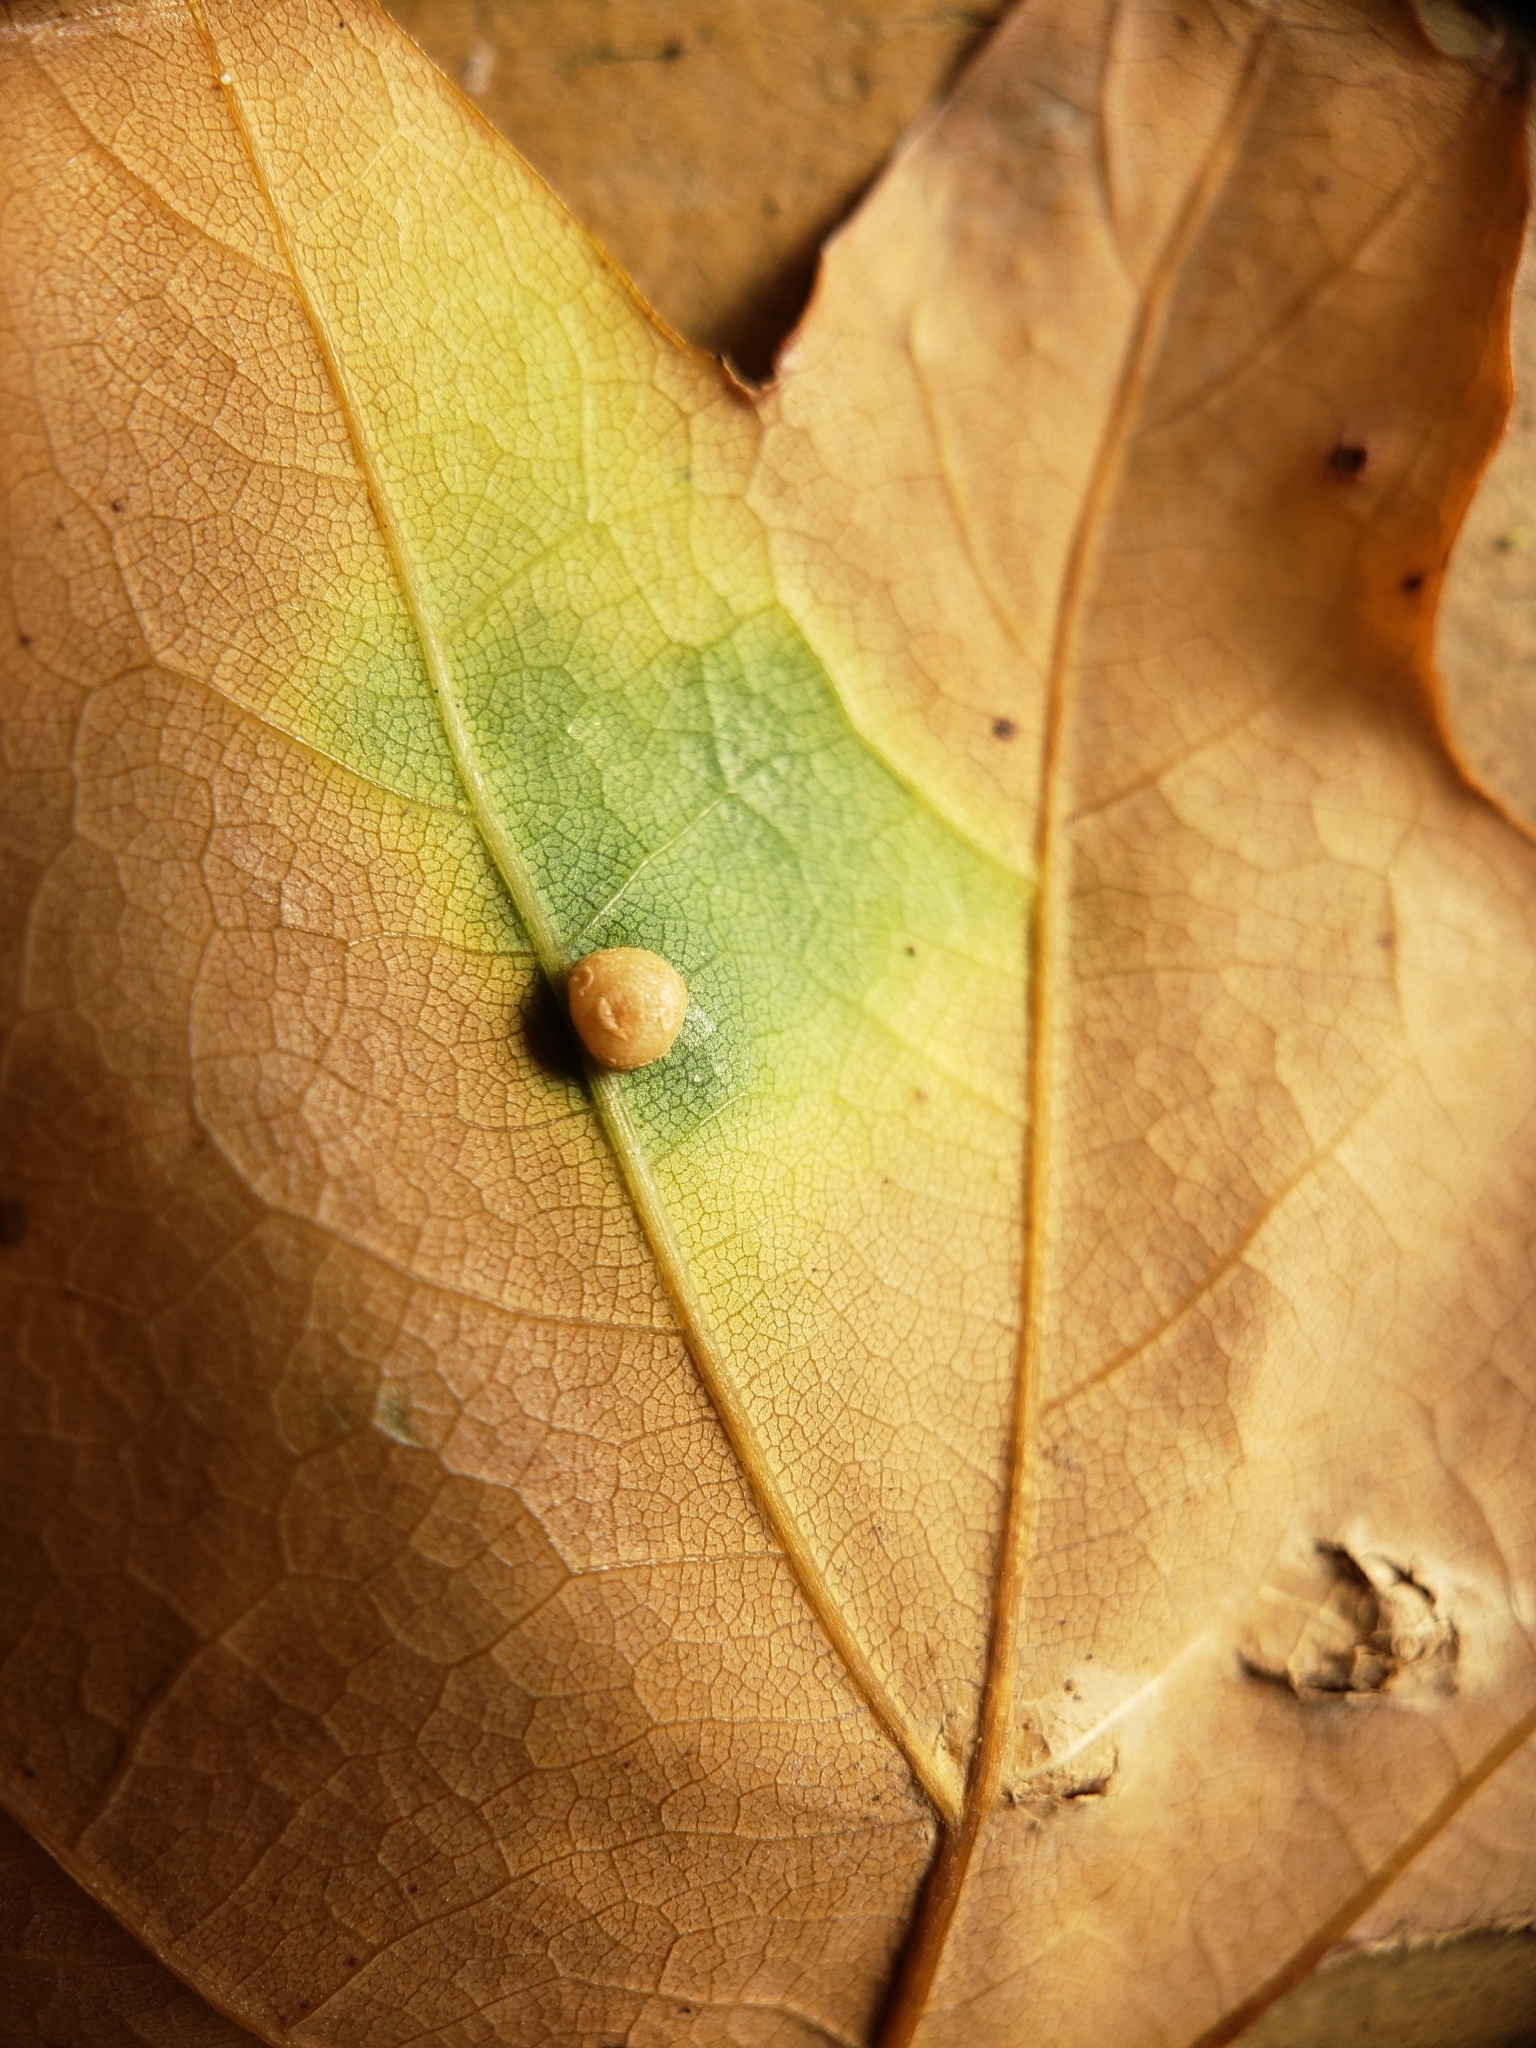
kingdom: Animalia
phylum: Arthropoda
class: Insecta
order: Diptera
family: Cecidomyiidae
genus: Polystepha
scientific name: Polystepha globosa
